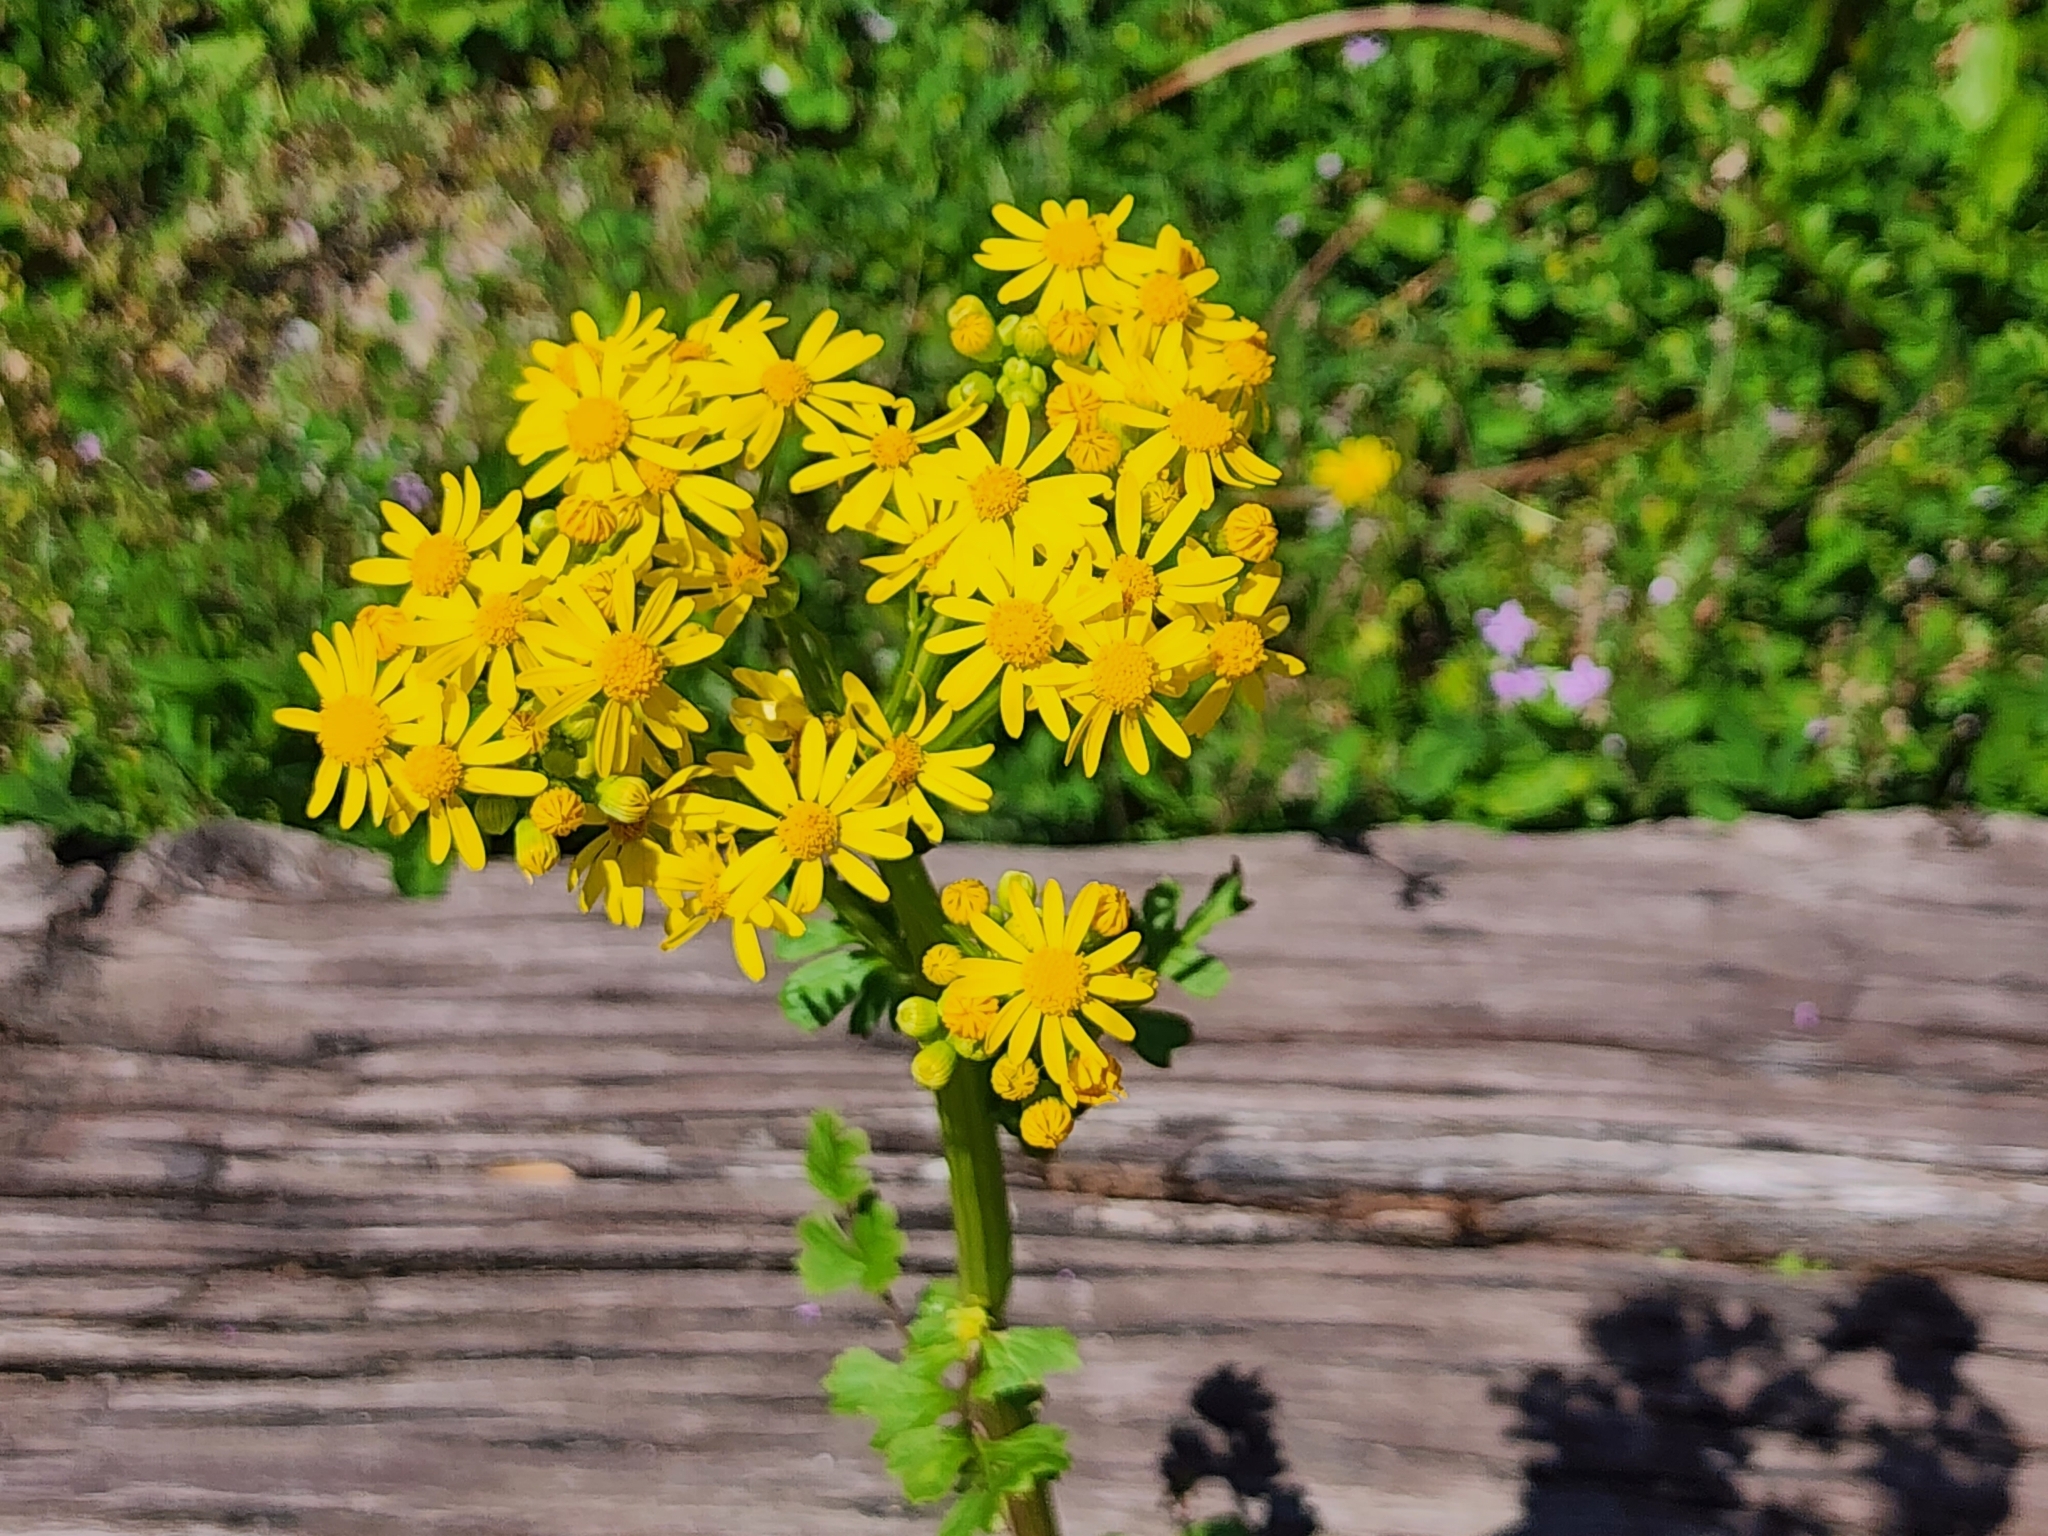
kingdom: Plantae
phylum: Tracheophyta
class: Magnoliopsida
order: Asterales
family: Asteraceae
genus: Packera
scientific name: Packera glabella
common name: Butterweed
